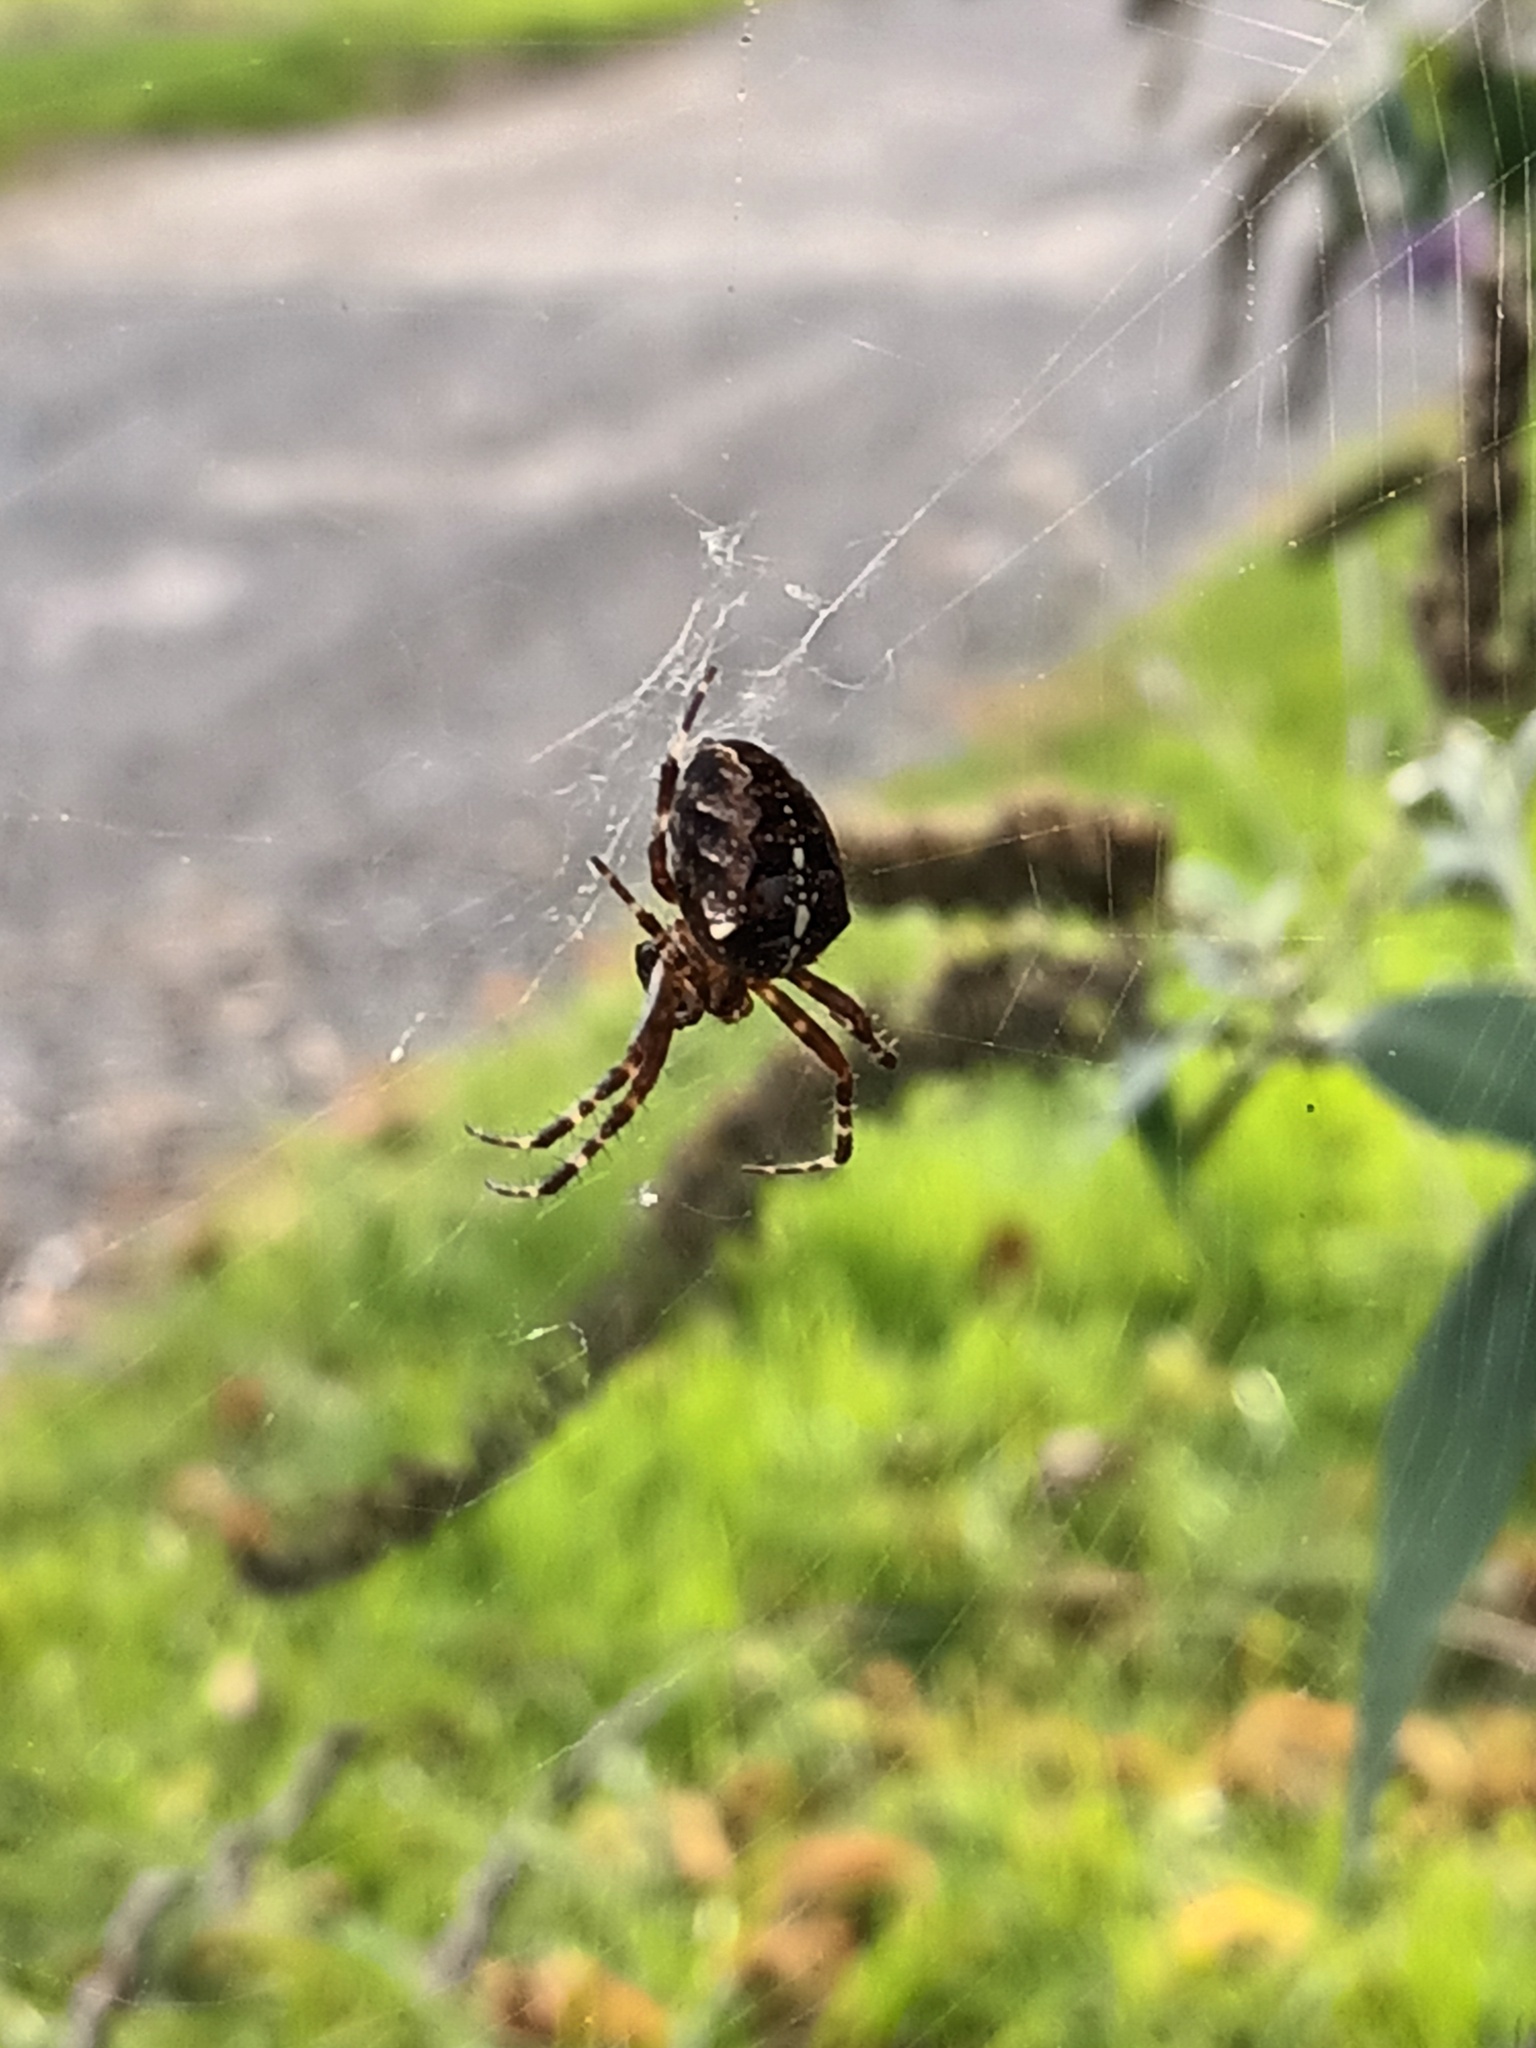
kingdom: Animalia
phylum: Arthropoda
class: Arachnida
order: Araneae
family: Araneidae
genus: Araneus
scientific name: Araneus diadematus
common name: Cross orbweaver
